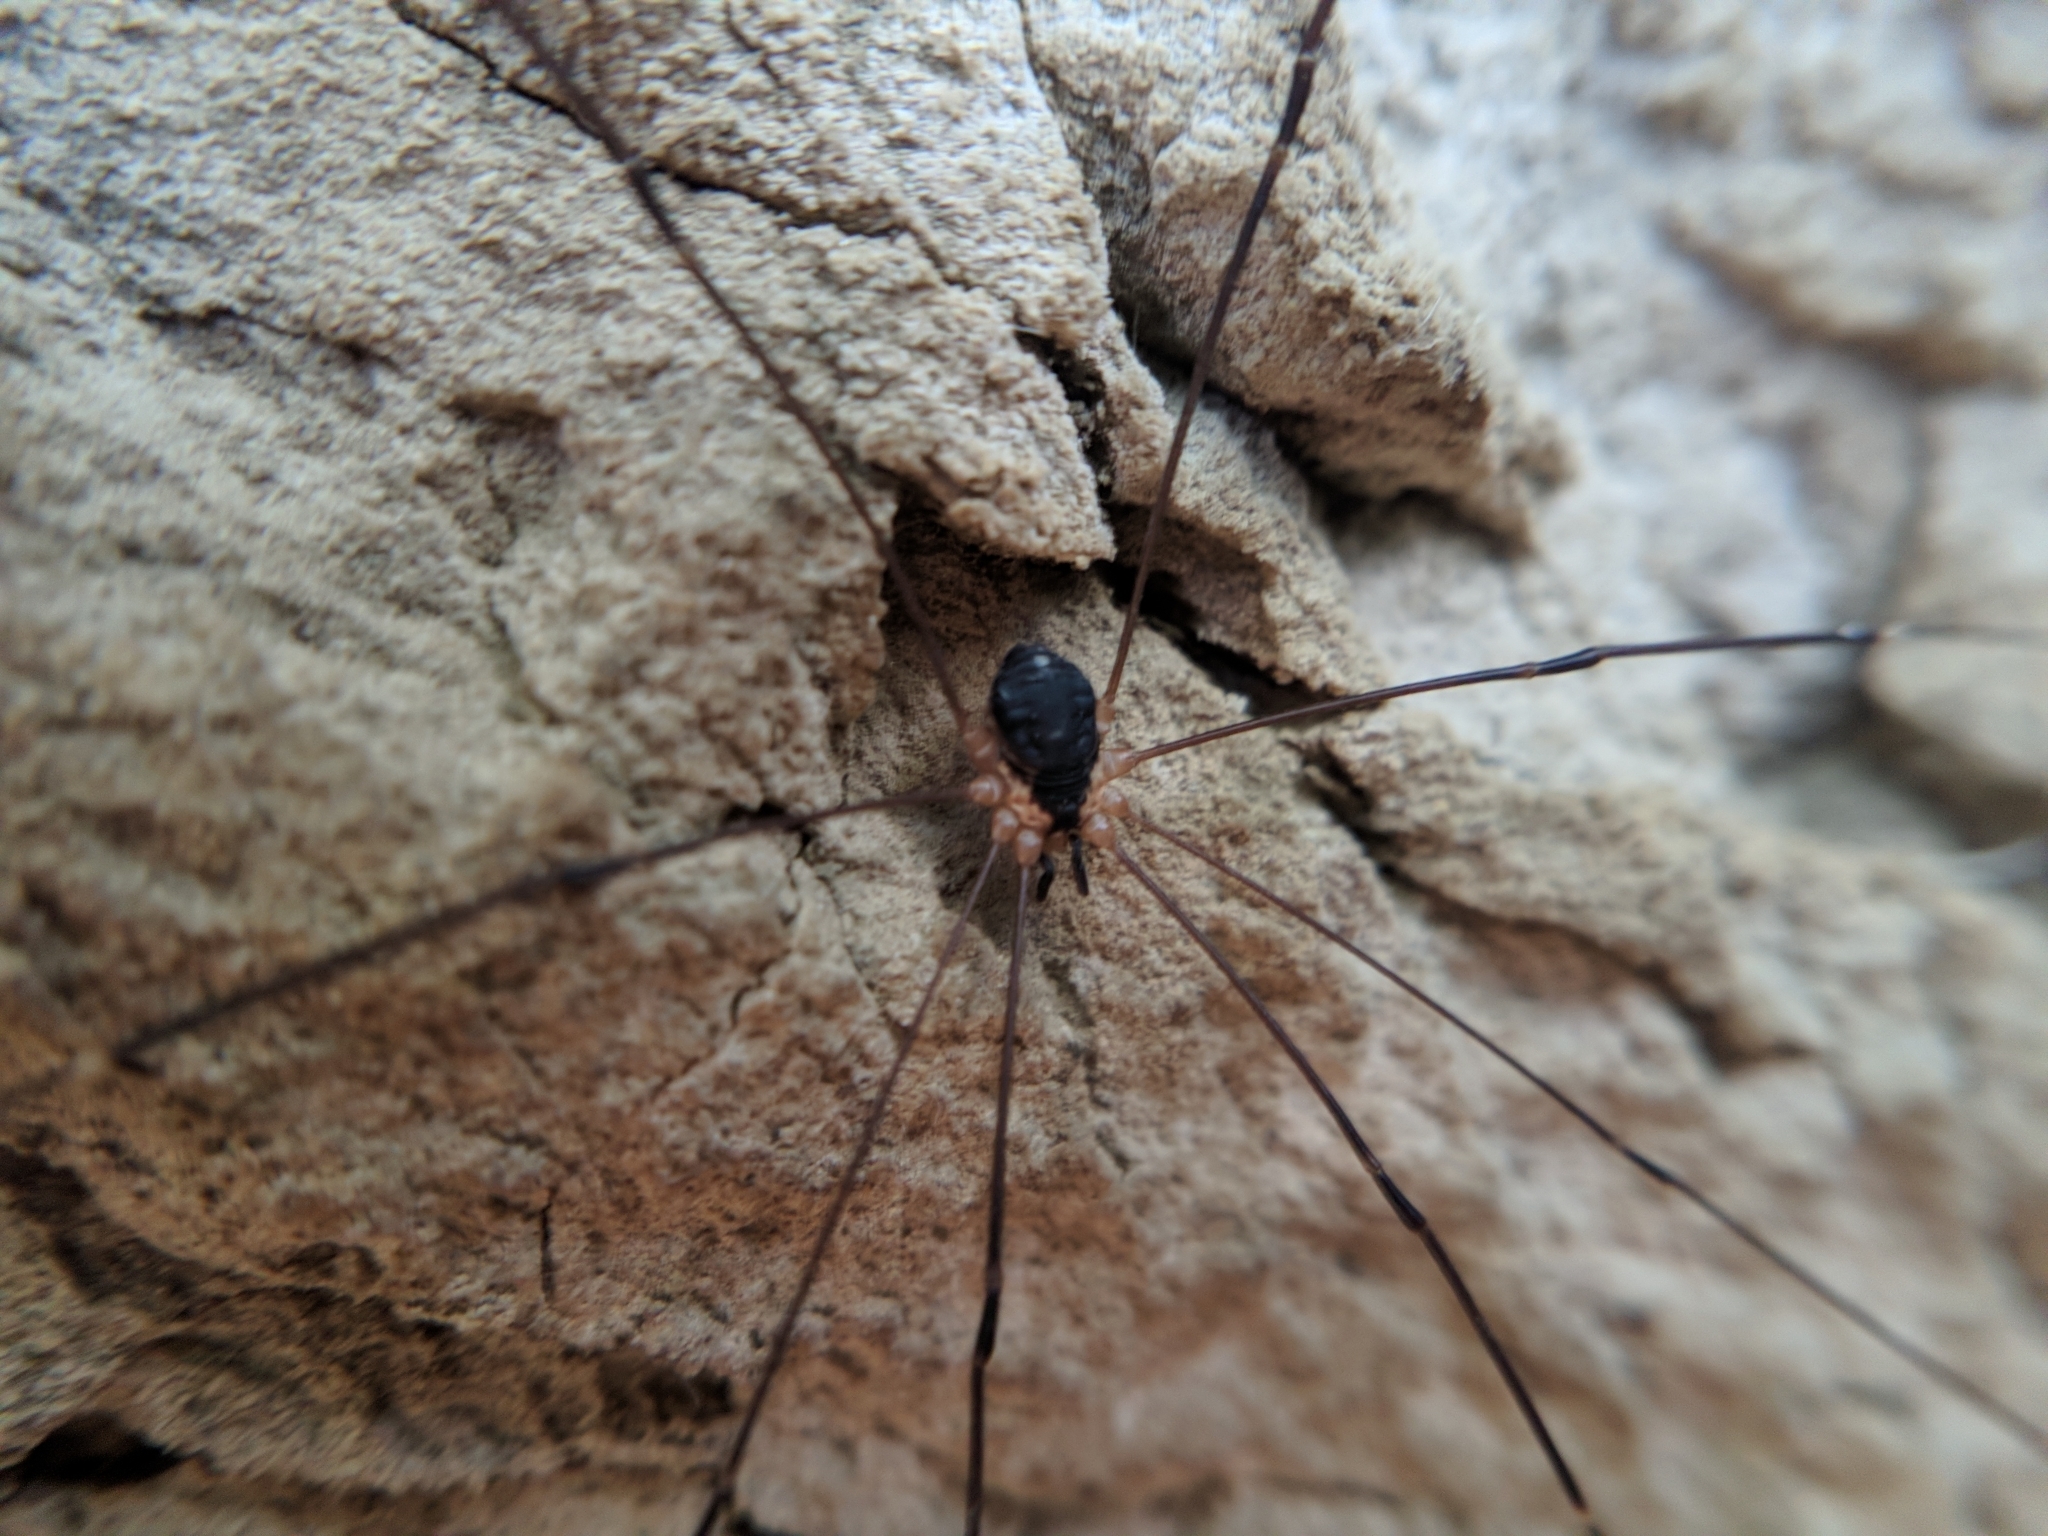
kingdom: Animalia
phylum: Arthropoda
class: Arachnida
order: Opiliones
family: Sclerosomatidae
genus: Leiobunum
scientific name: Leiobunum rupestre
